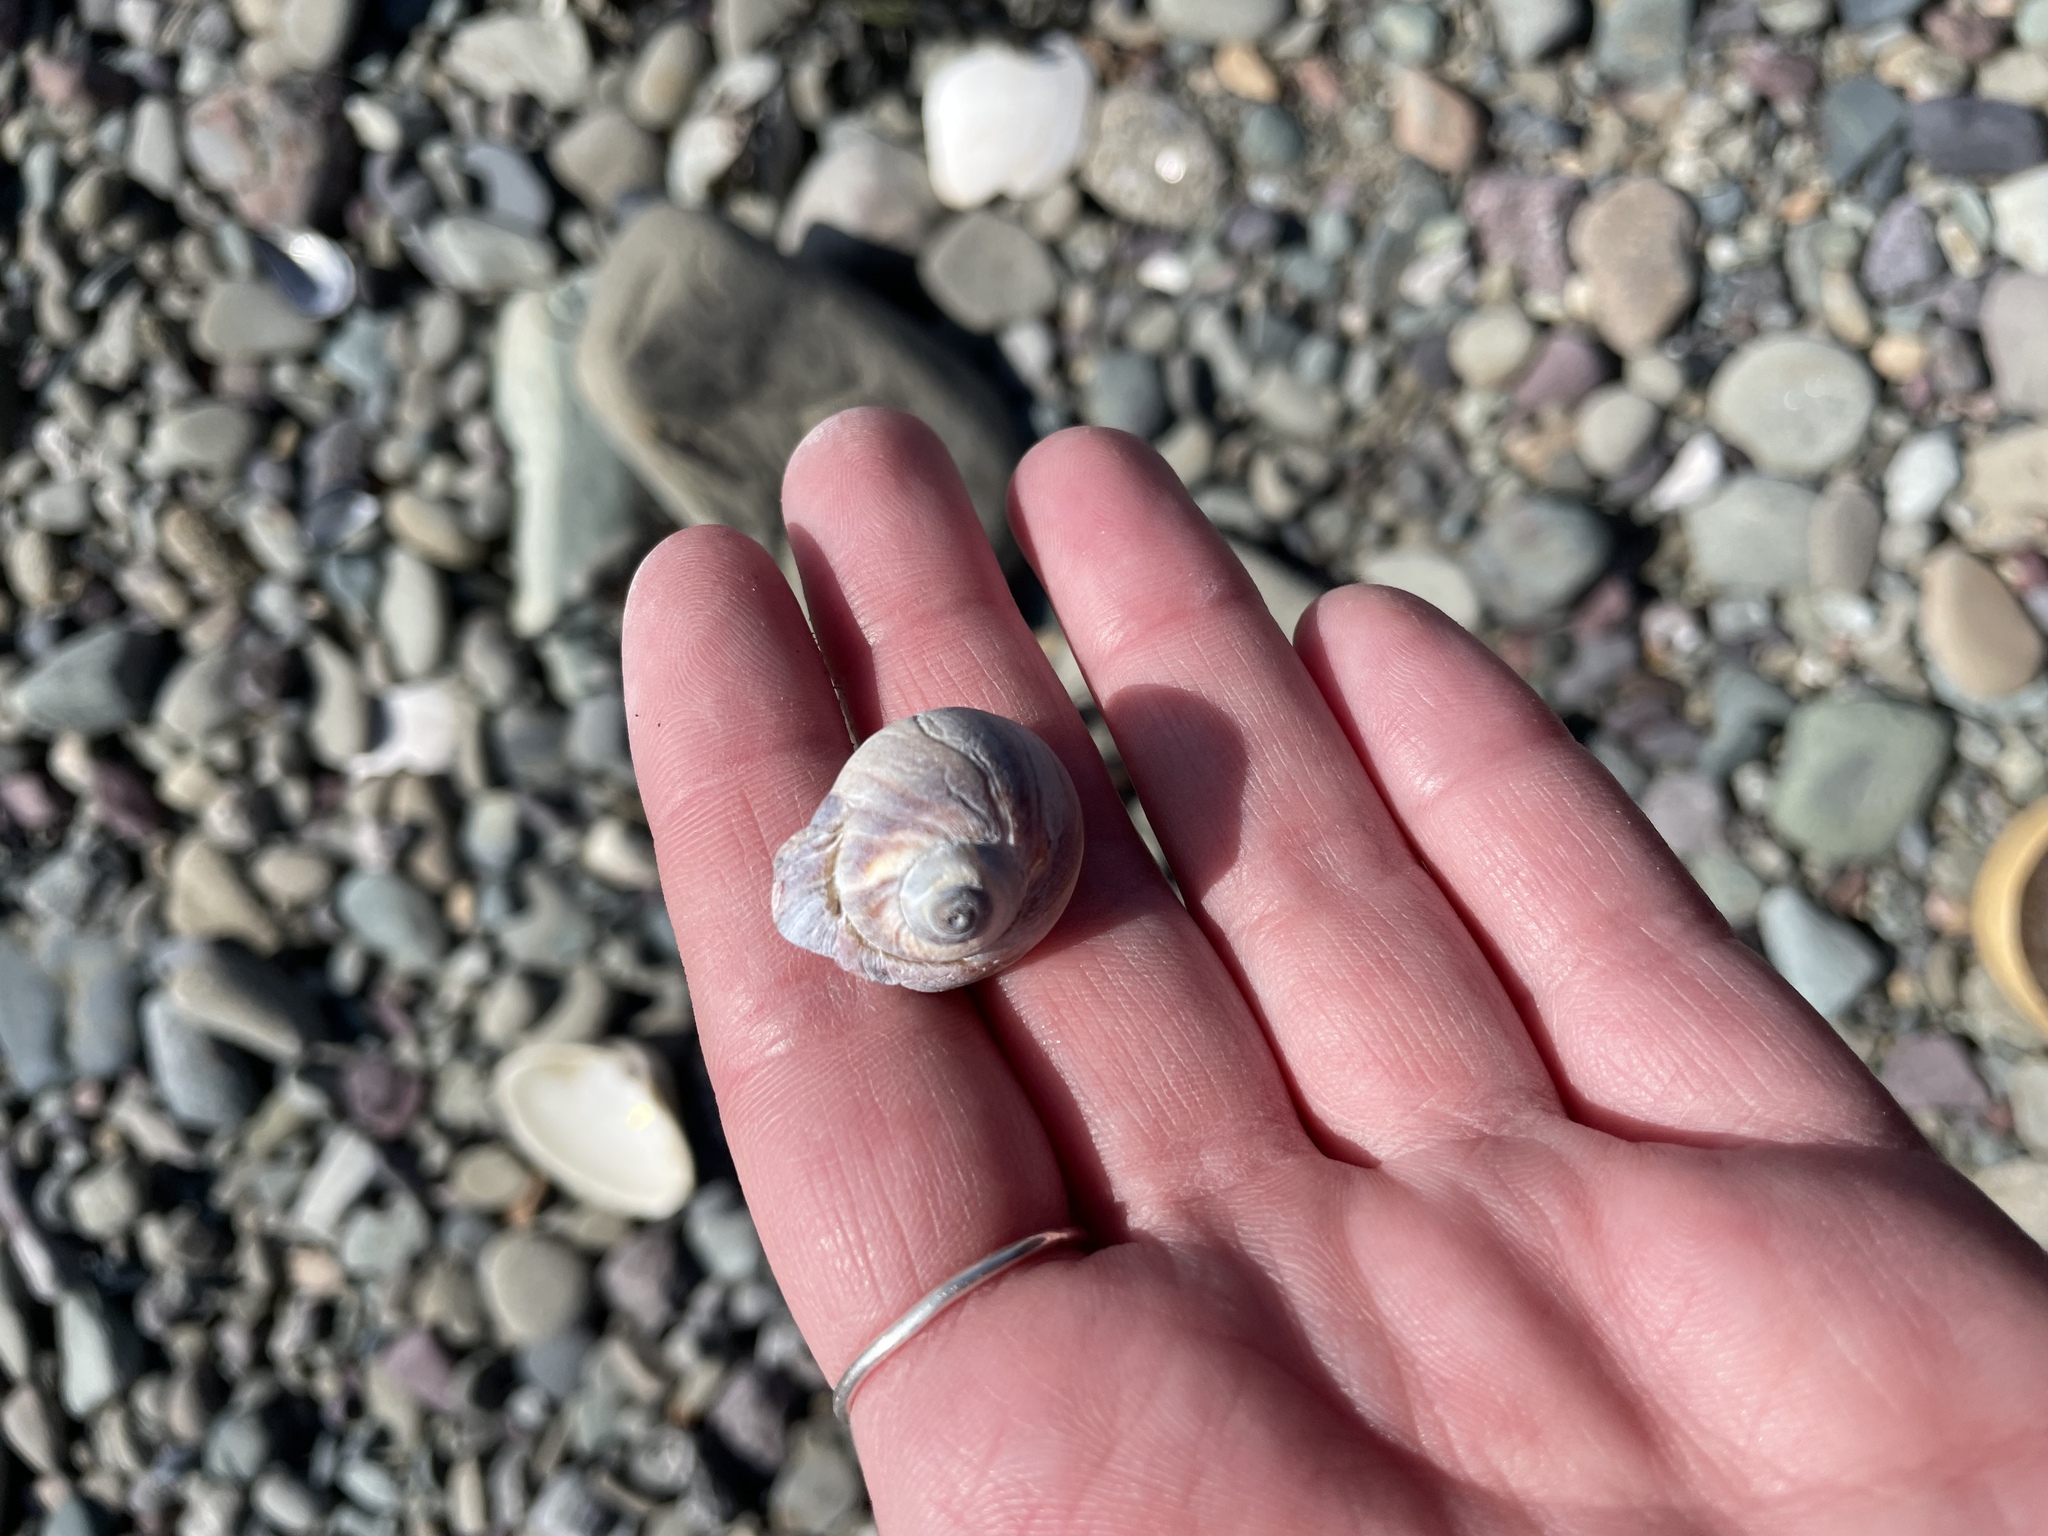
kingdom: Animalia
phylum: Mollusca
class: Gastropoda
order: Littorinimorpha
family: Naticidae
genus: Euspira
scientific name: Euspira heros
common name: Common northern moonsnail
